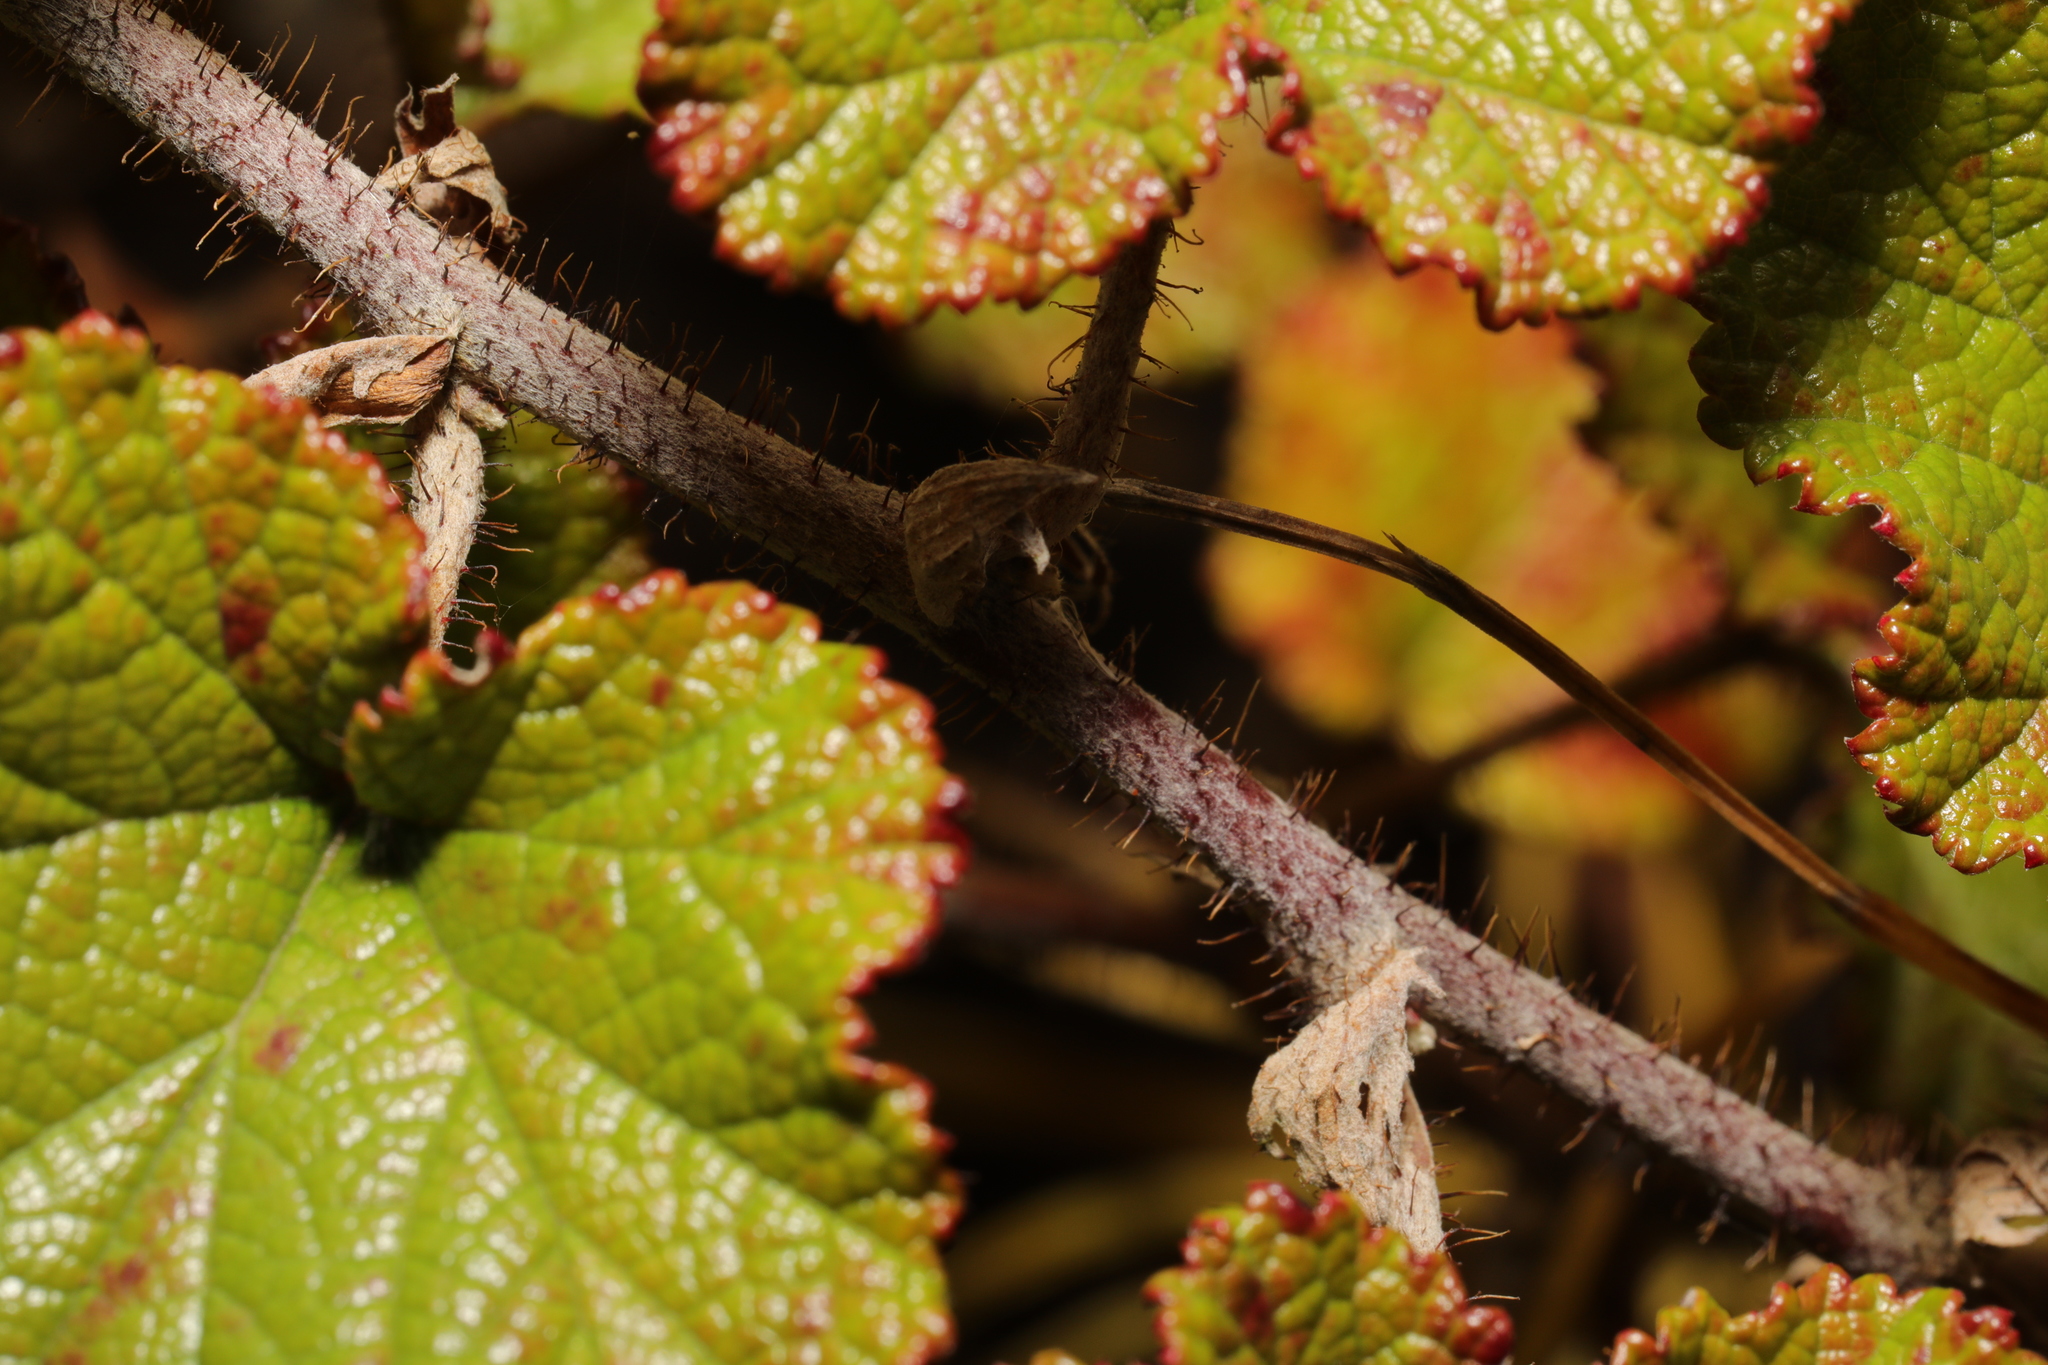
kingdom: Plantae
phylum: Tracheophyta
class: Magnoliopsida
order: Rosales
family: Rosaceae
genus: Rubus
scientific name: Rubus tricolor
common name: Chinese bramble
